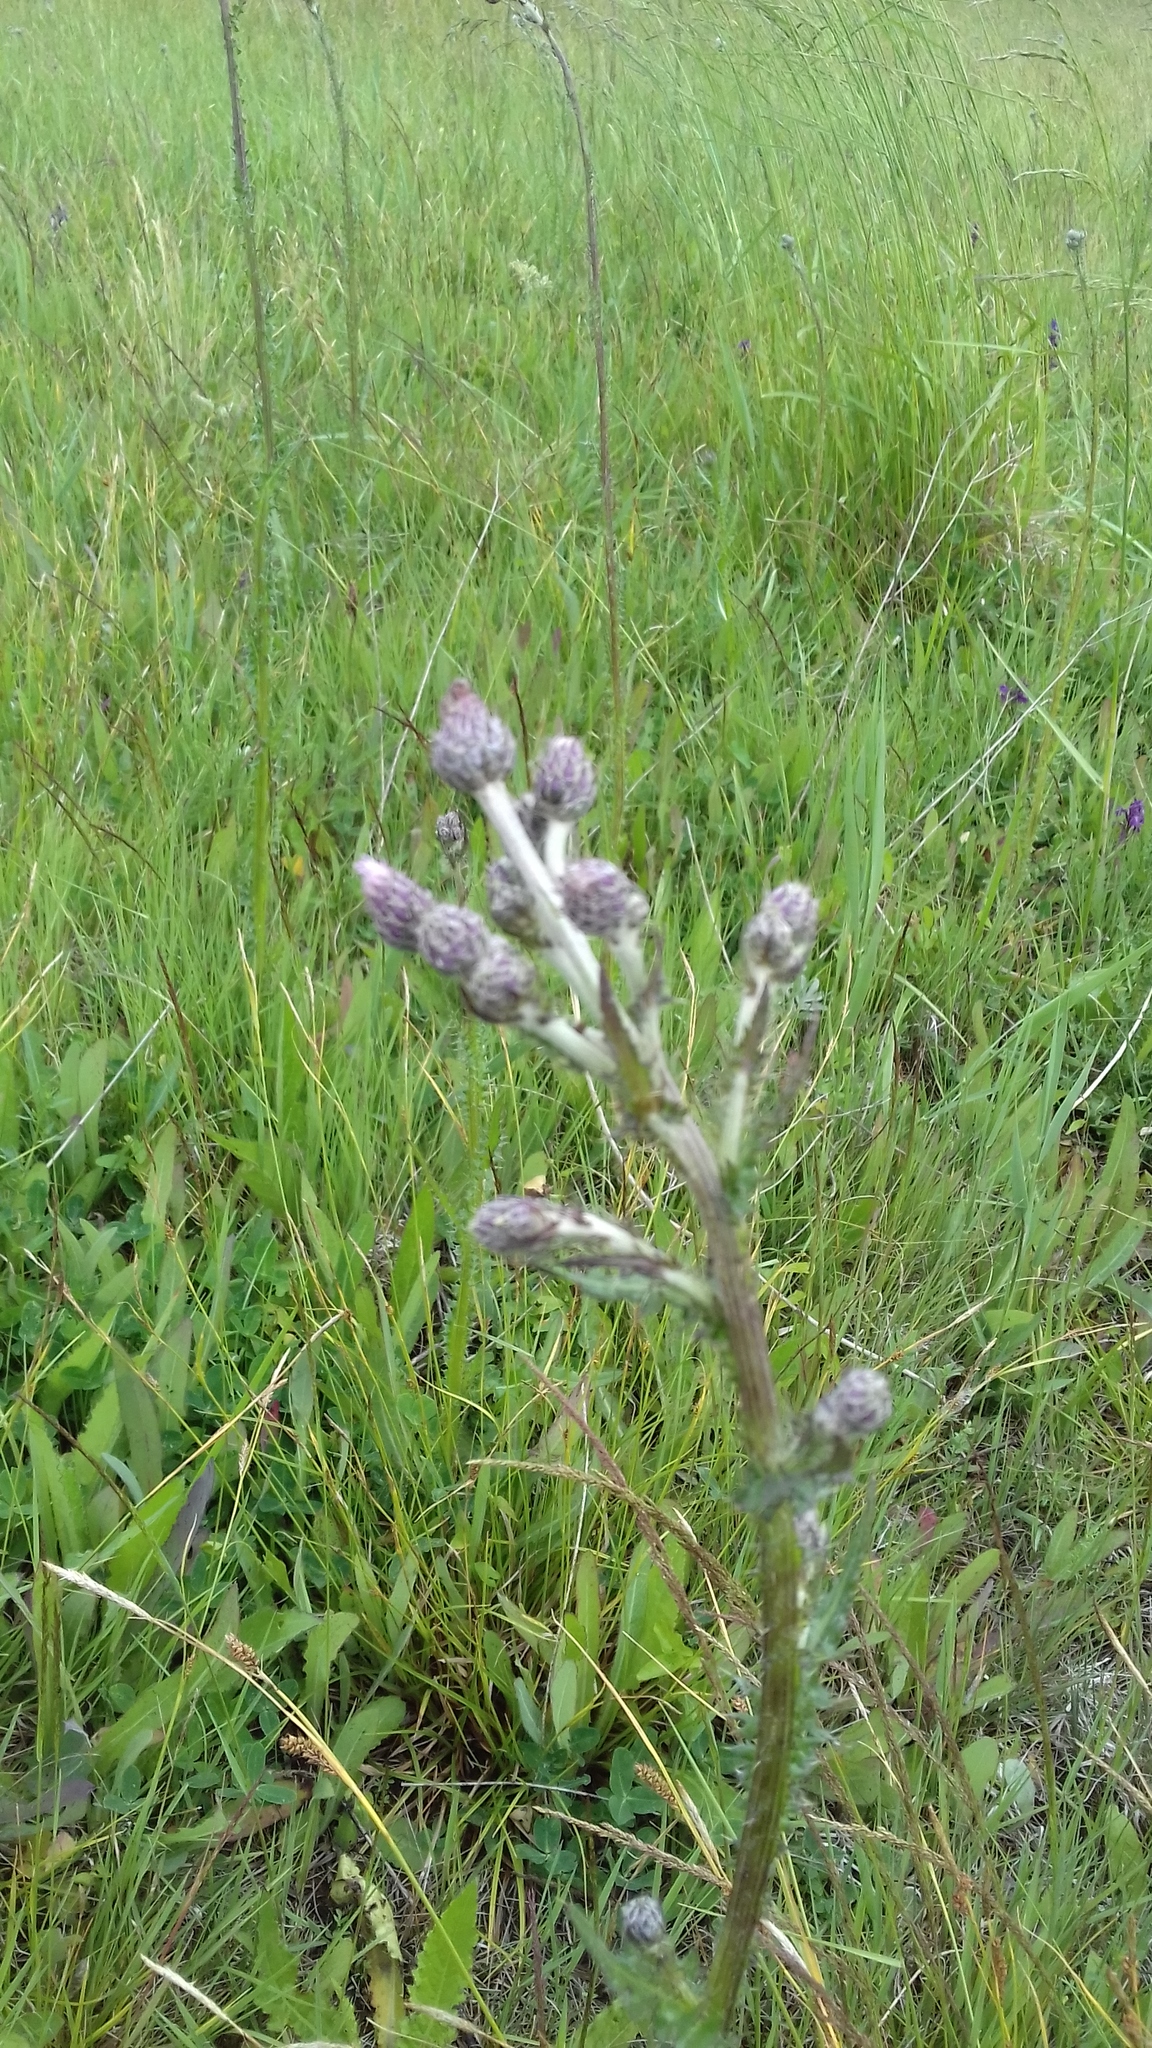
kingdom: Plantae
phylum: Tracheophyta
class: Magnoliopsida
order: Asterales
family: Asteraceae
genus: Cirsium
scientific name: Cirsium brachycephalum
